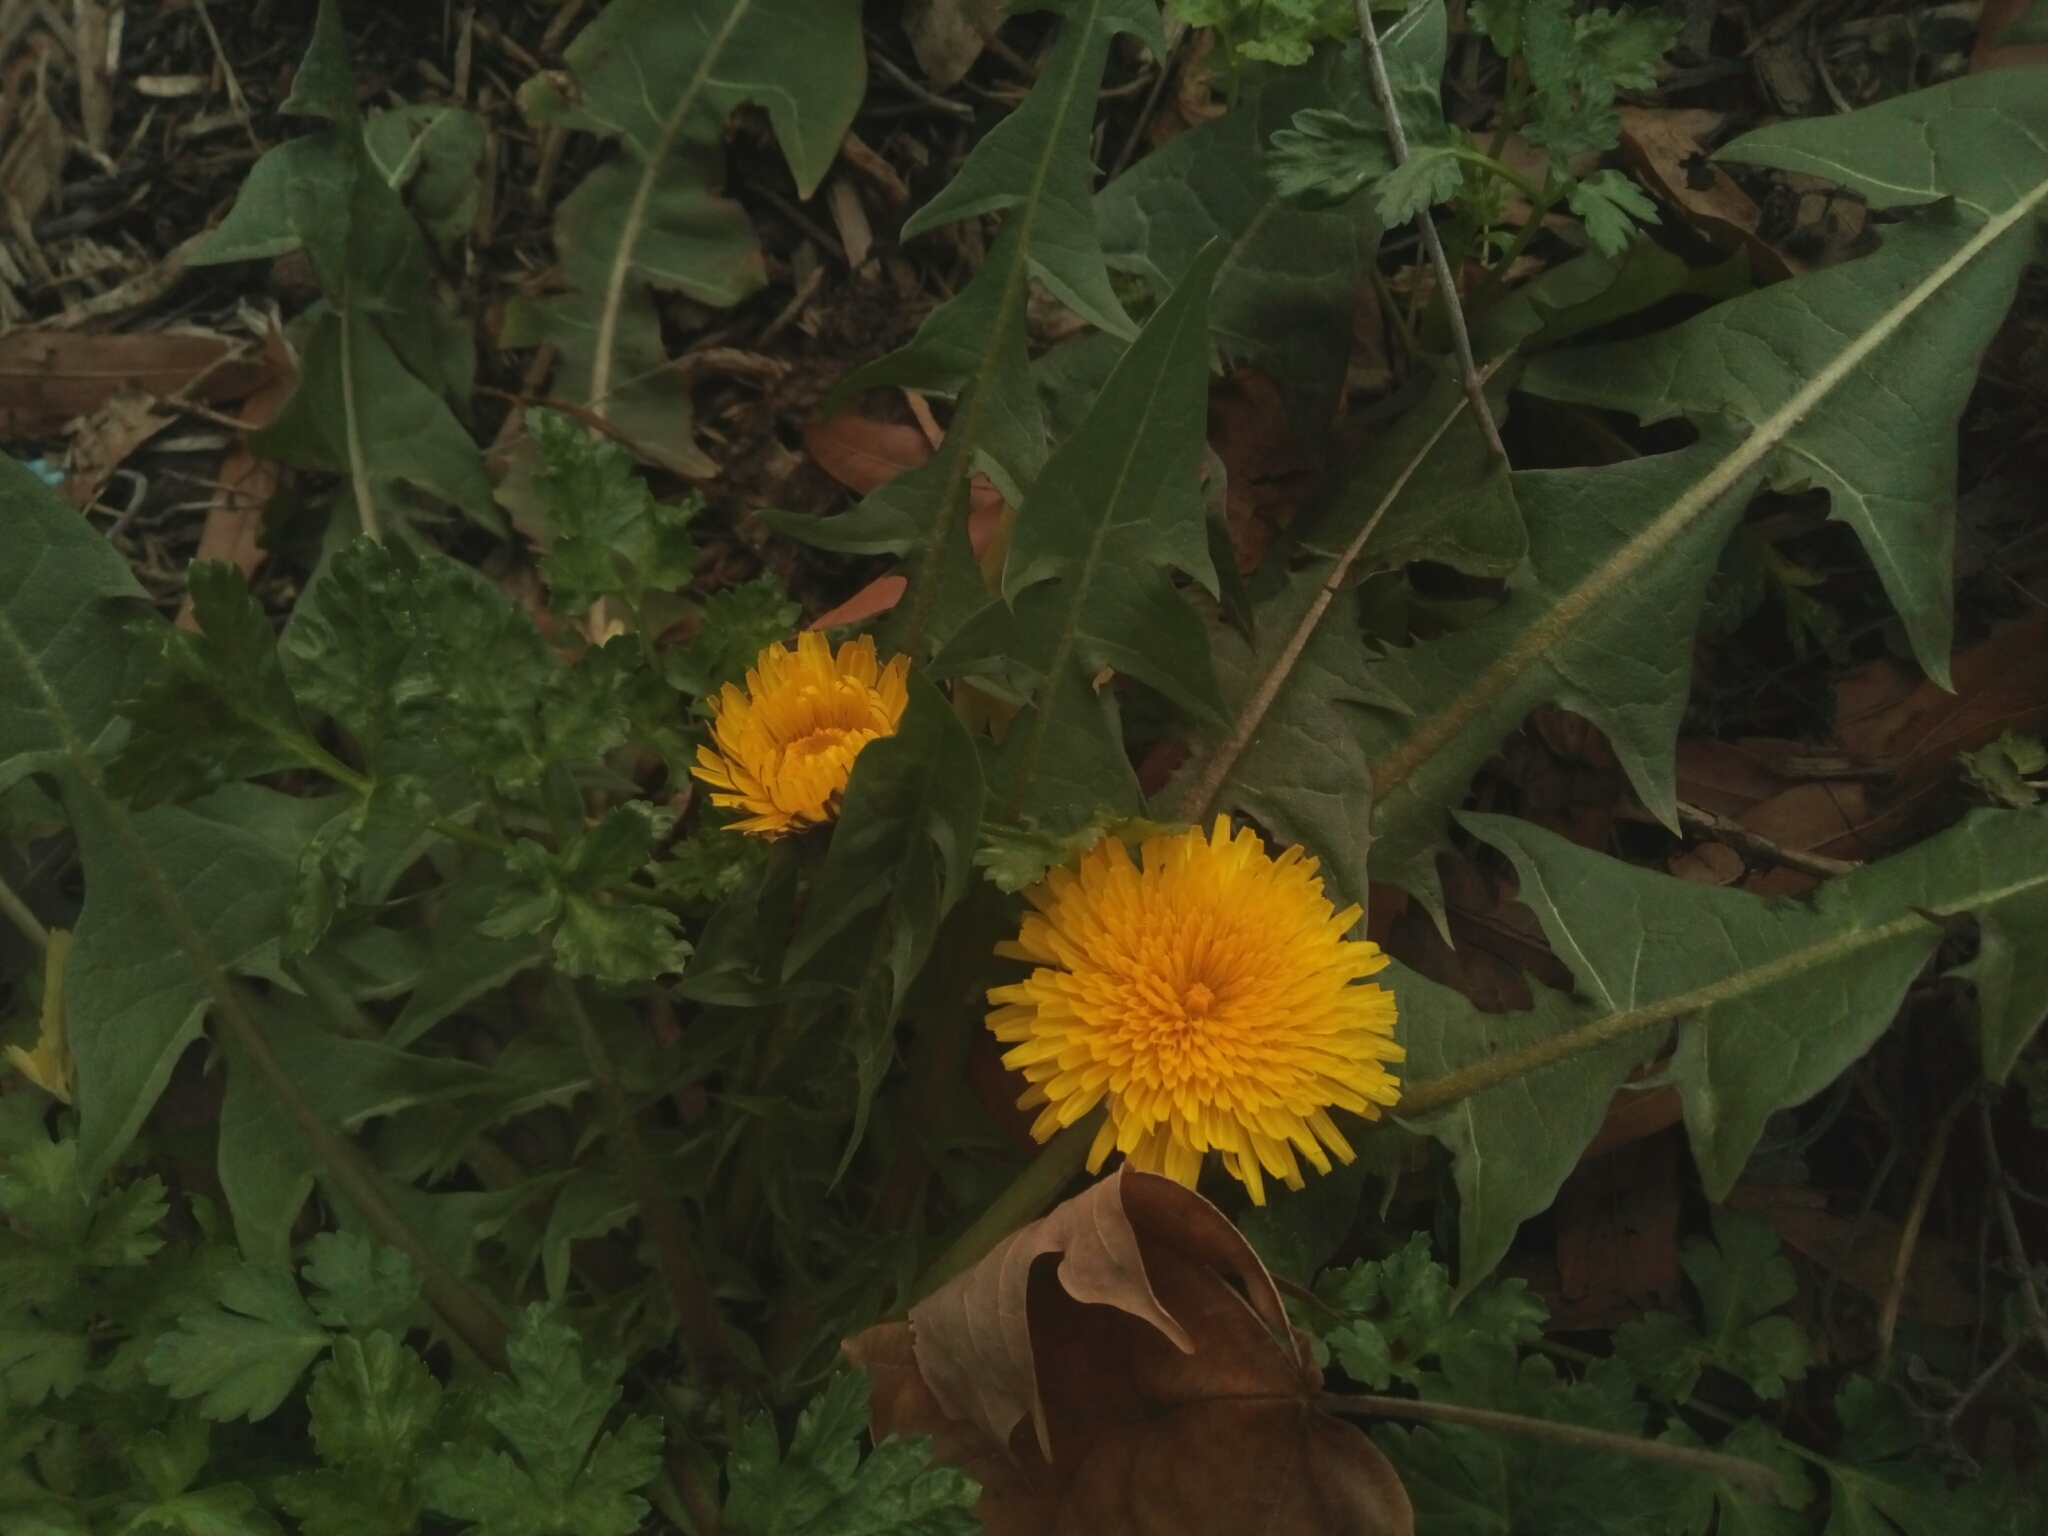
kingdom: Plantae
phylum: Tracheophyta
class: Magnoliopsida
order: Asterales
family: Asteraceae
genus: Taraxacum
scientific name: Taraxacum officinale
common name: Common dandelion
